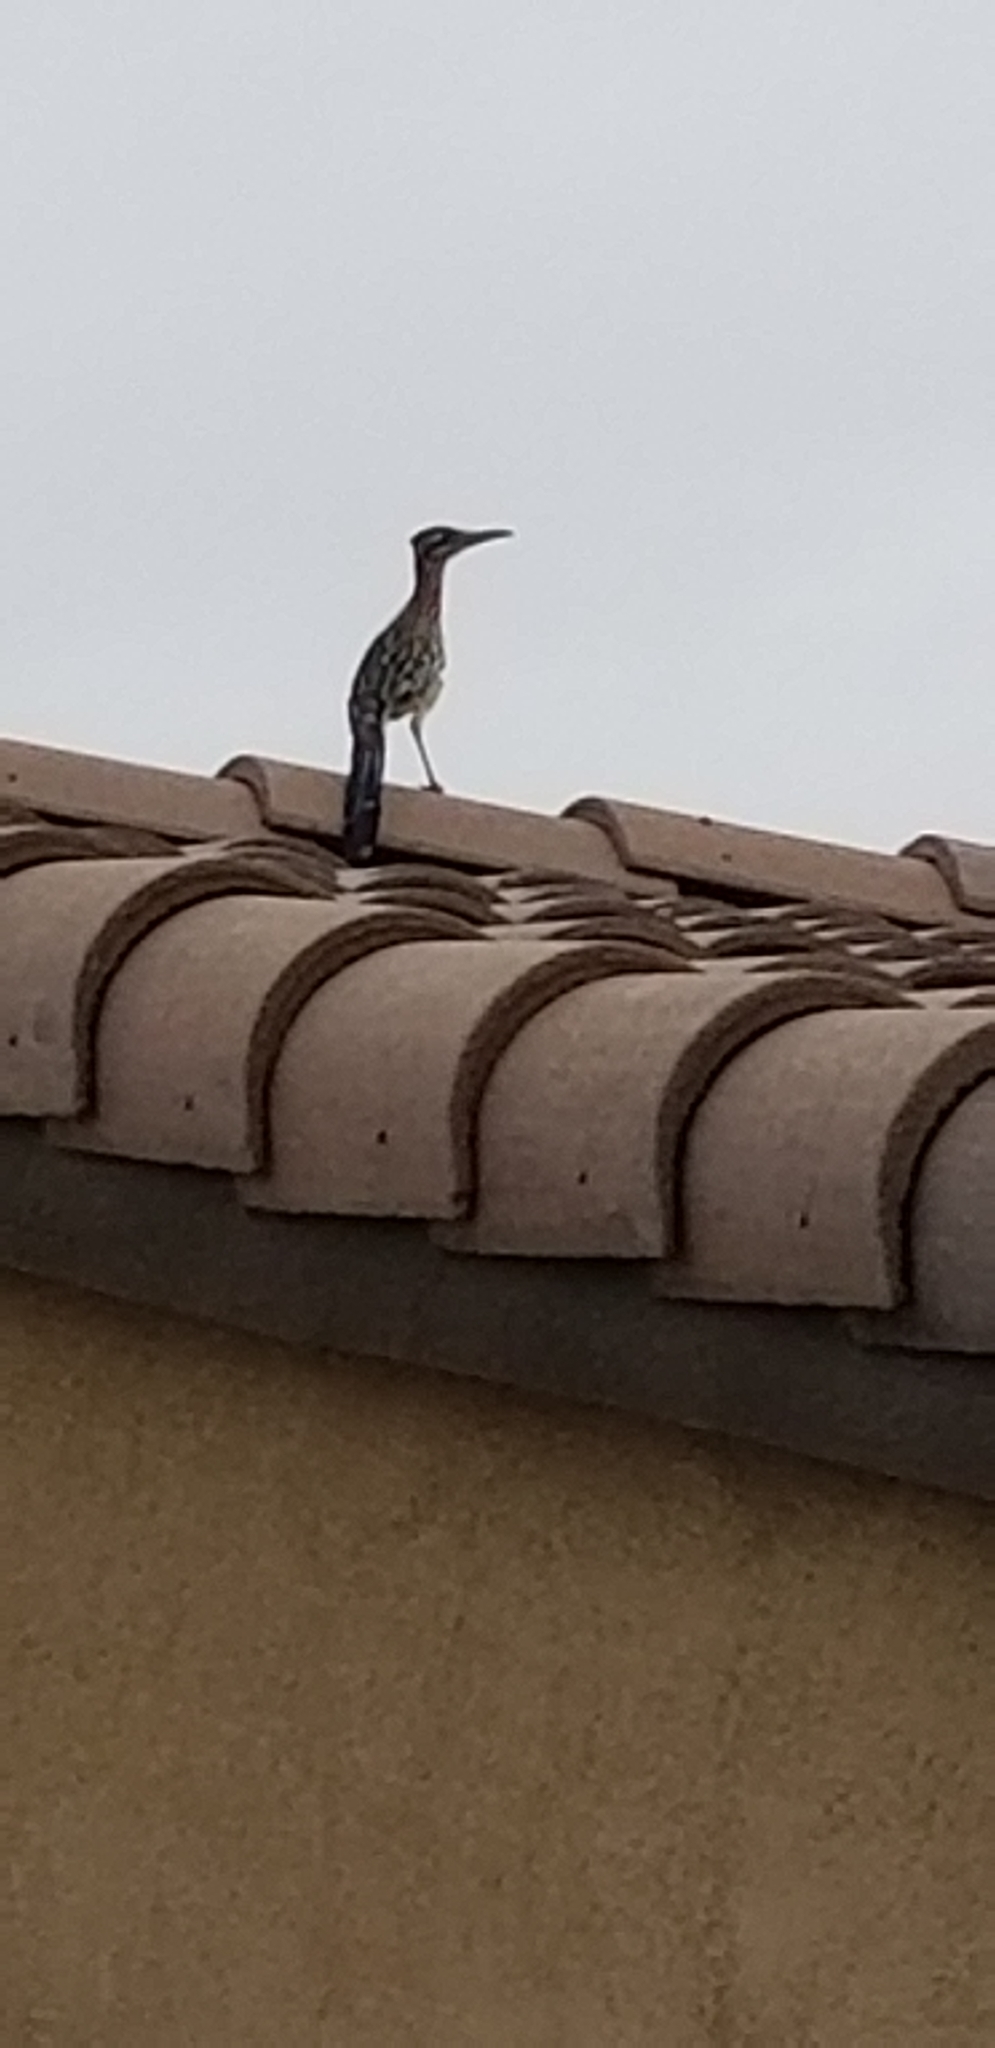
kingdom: Animalia
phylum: Chordata
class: Aves
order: Cuculiformes
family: Cuculidae
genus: Geococcyx
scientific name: Geococcyx californianus
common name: Greater roadrunner
